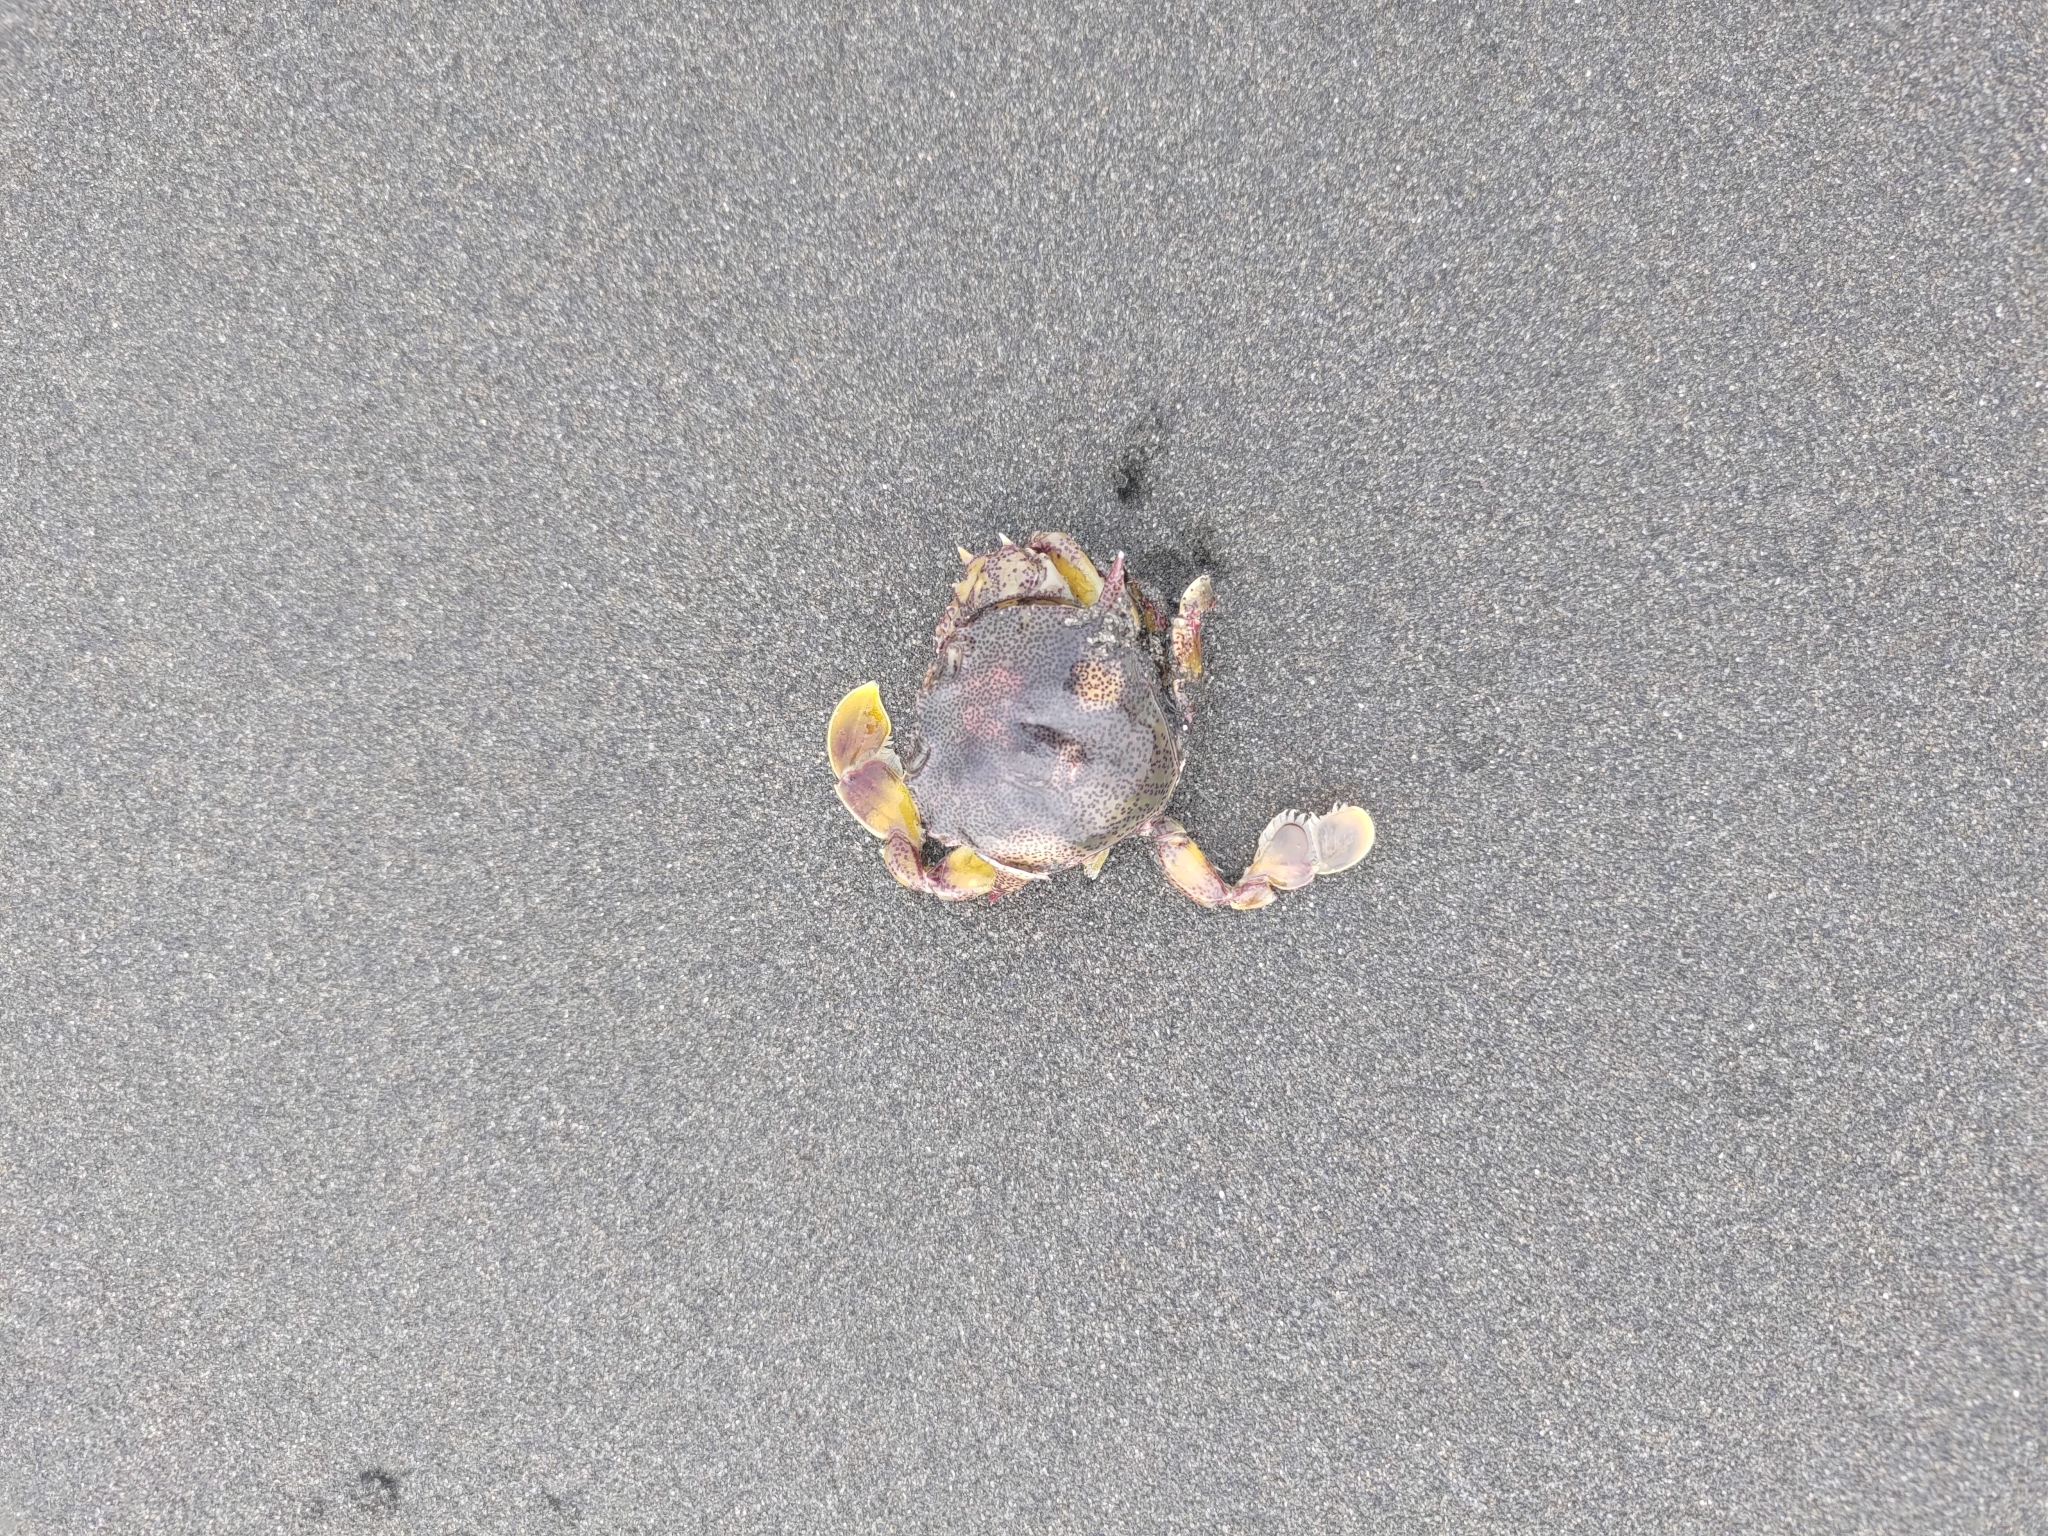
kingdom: Animalia
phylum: Arthropoda
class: Malacostraca
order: Decapoda
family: Matutidae
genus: Matuta
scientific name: Matuta victor
